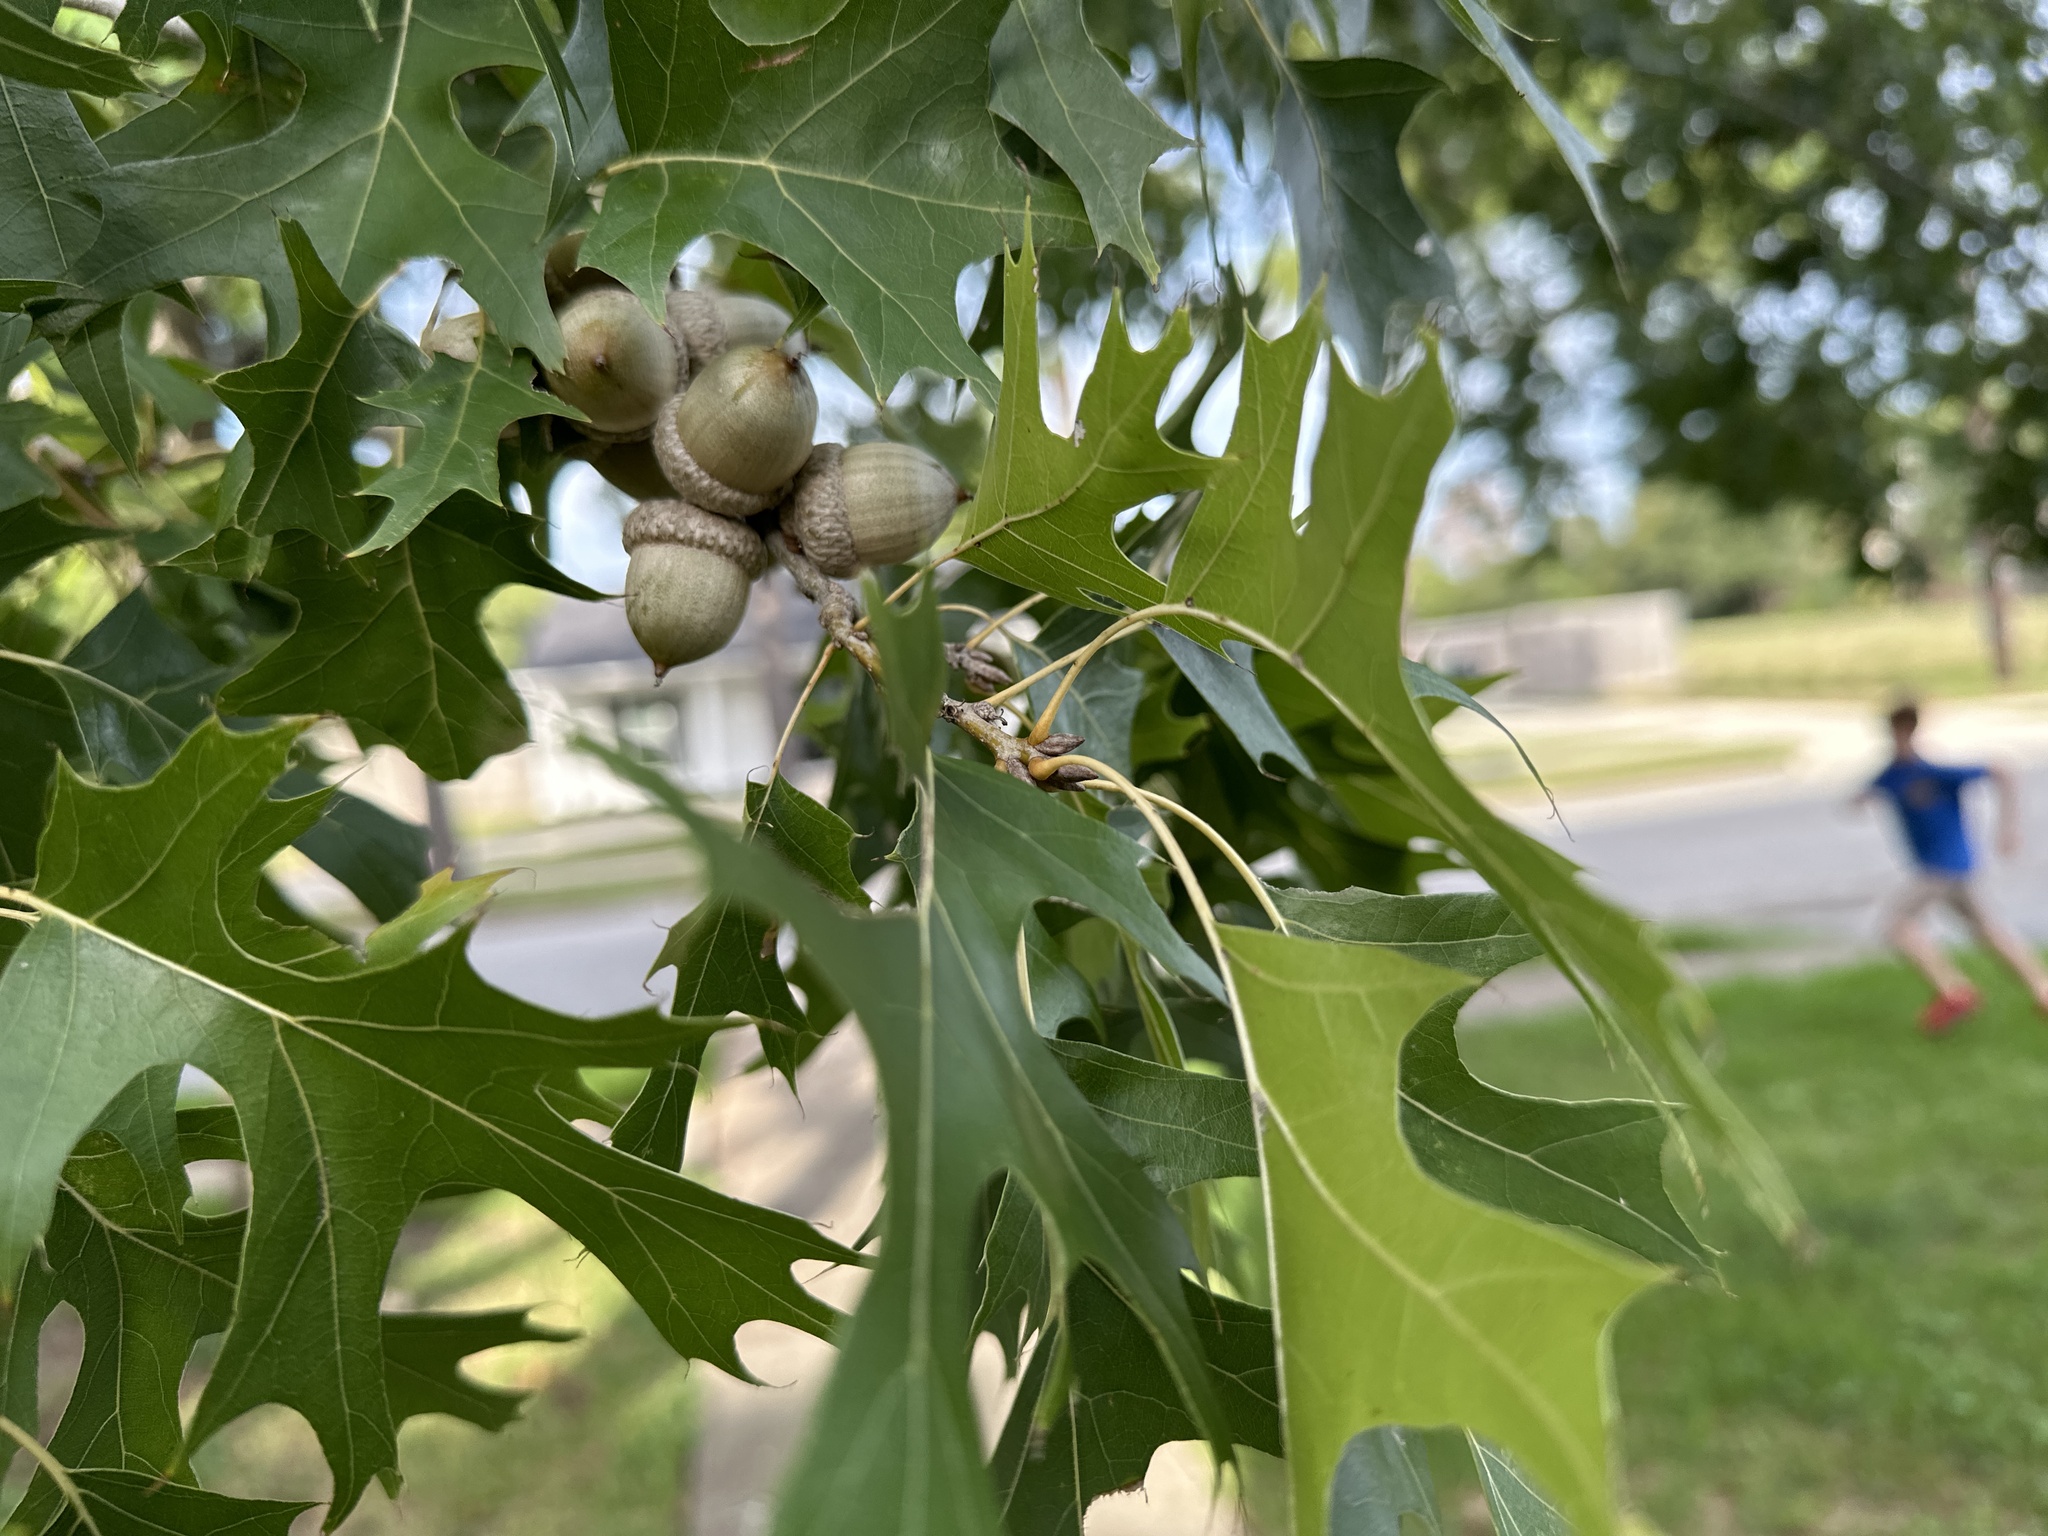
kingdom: Plantae
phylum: Tracheophyta
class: Magnoliopsida
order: Fagales
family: Fagaceae
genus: Quercus
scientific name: Quercus shumardii
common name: Shumard oak
